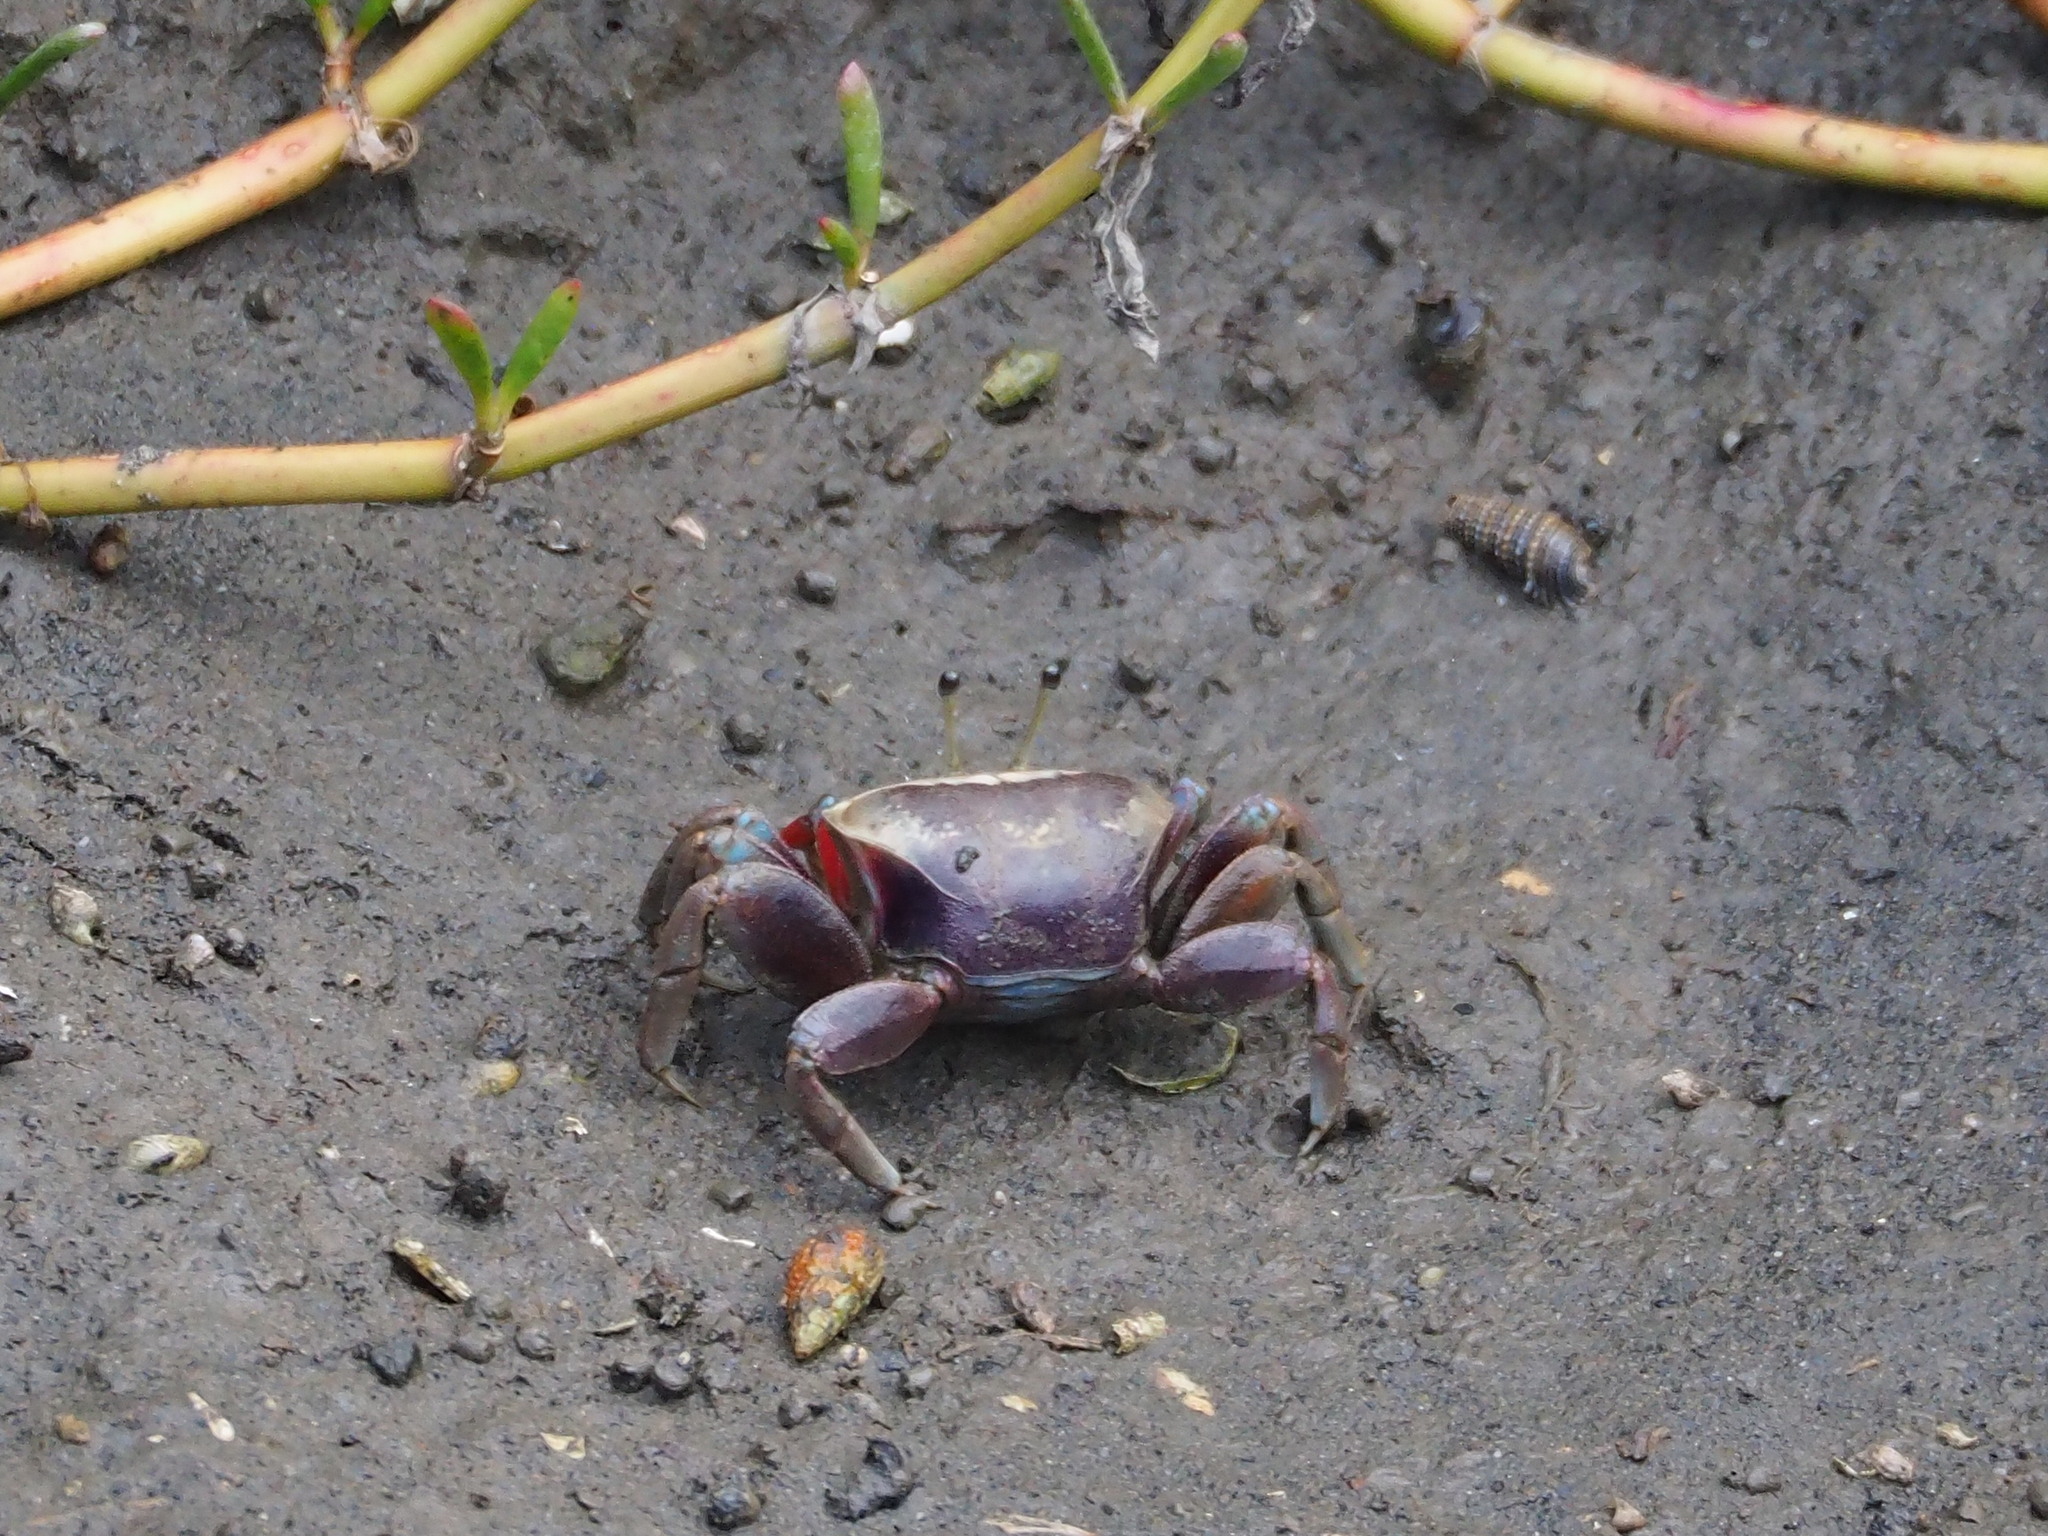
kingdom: Animalia
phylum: Arthropoda
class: Malacostraca
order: Decapoda
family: Ocypodidae
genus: Tubuca
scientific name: Tubuca arcuata
